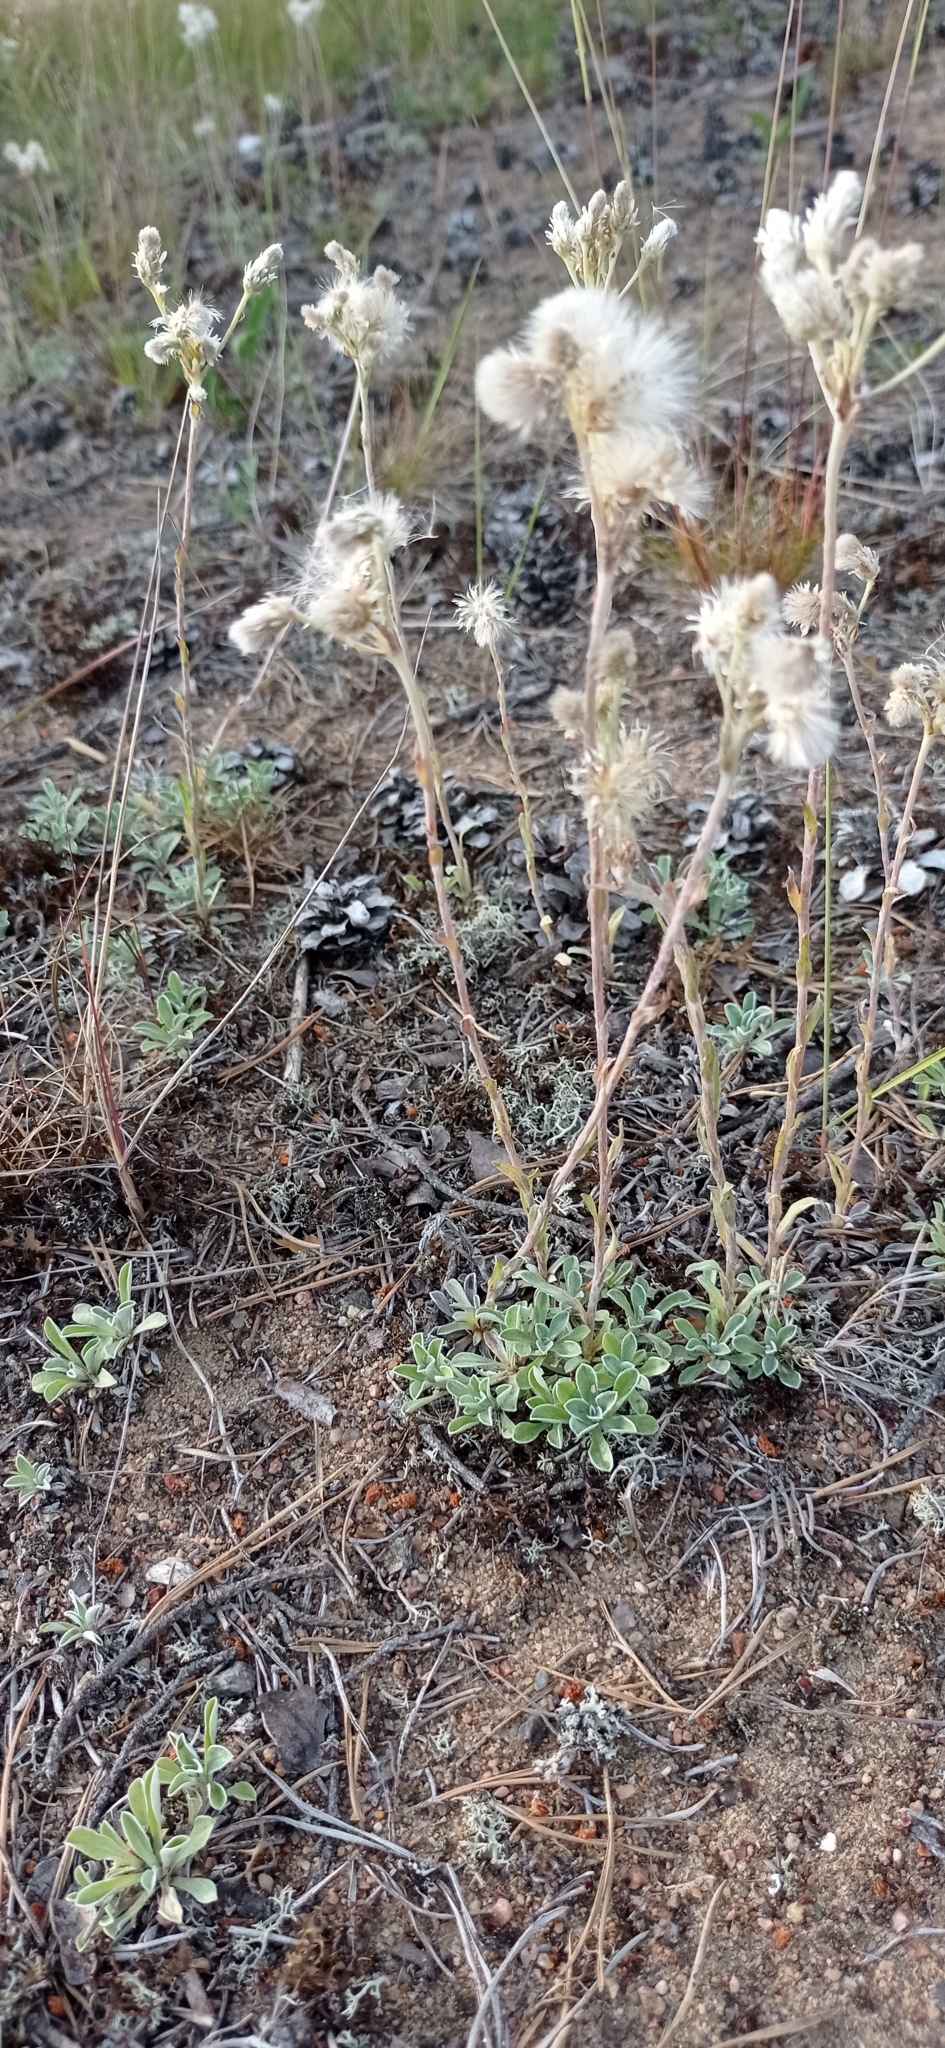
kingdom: Plantae
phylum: Tracheophyta
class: Magnoliopsida
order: Asterales
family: Asteraceae
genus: Antennaria
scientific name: Antennaria dioica
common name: Mountain everlasting
